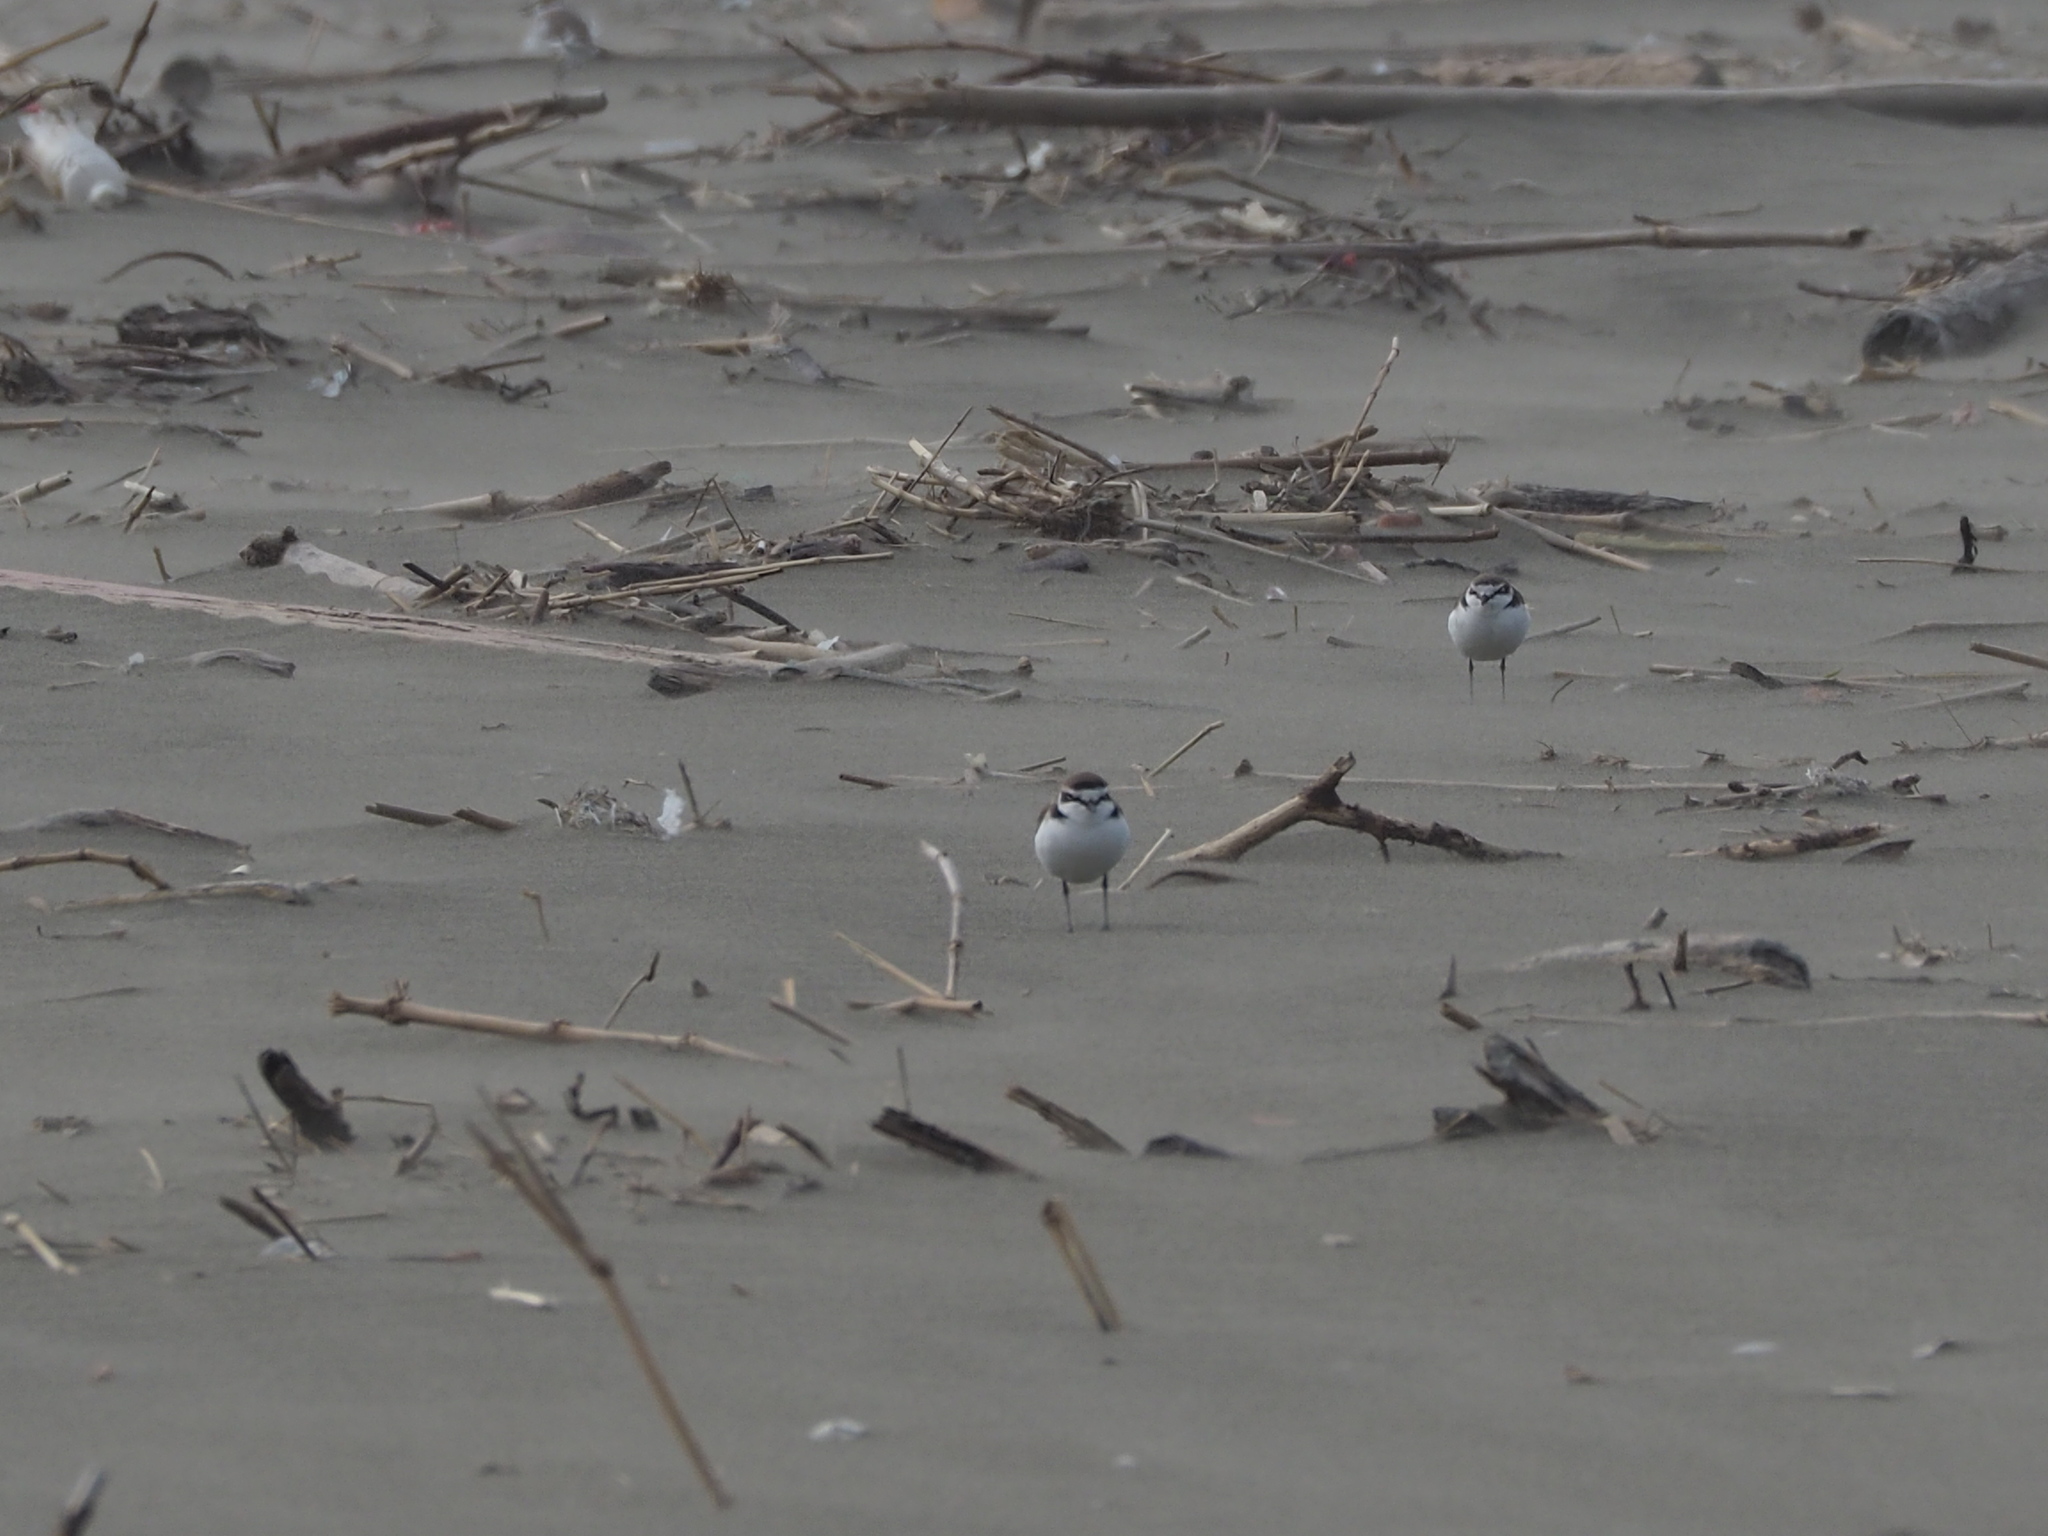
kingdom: Animalia
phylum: Chordata
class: Aves
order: Charadriiformes
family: Charadriidae
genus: Charadrius
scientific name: Charadrius alexandrinus
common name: Kentish plover
